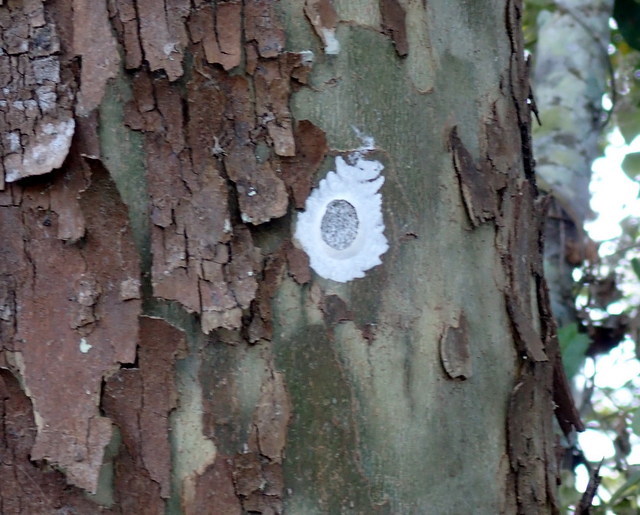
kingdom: Animalia
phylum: Arthropoda
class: Insecta
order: Megaloptera
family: Corydalidae
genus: Corydalus
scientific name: Corydalus cornutus
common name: Dobsonfly
